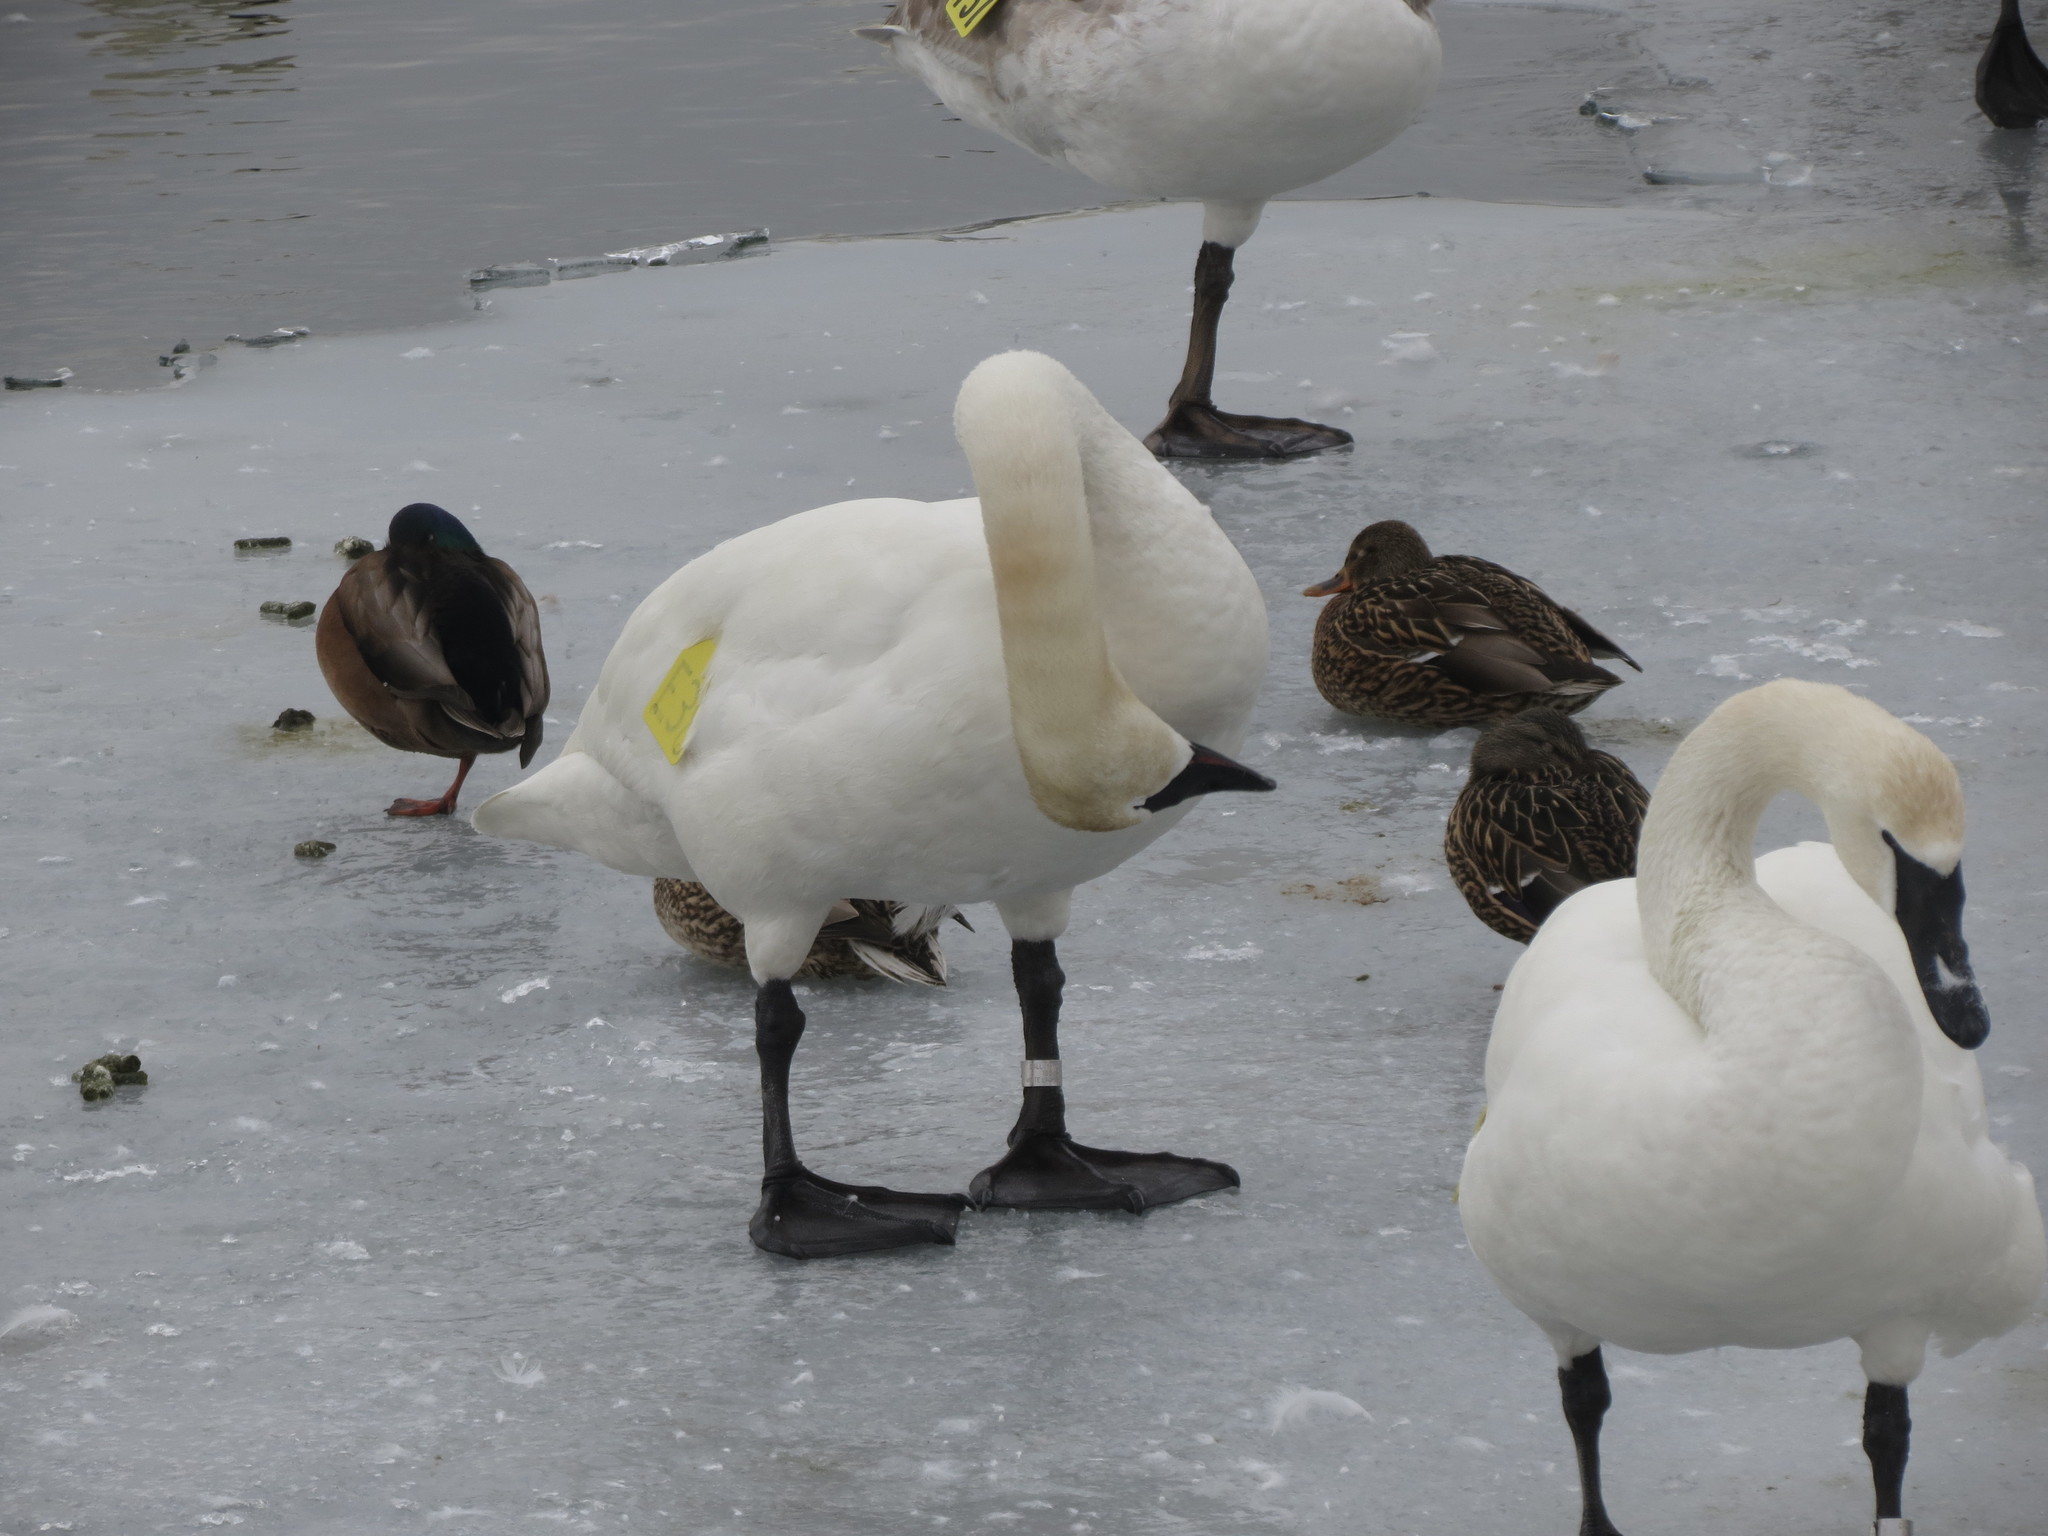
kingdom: Animalia
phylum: Chordata
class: Aves
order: Anseriformes
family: Anatidae
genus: Cygnus
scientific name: Cygnus buccinator
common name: Trumpeter swan
